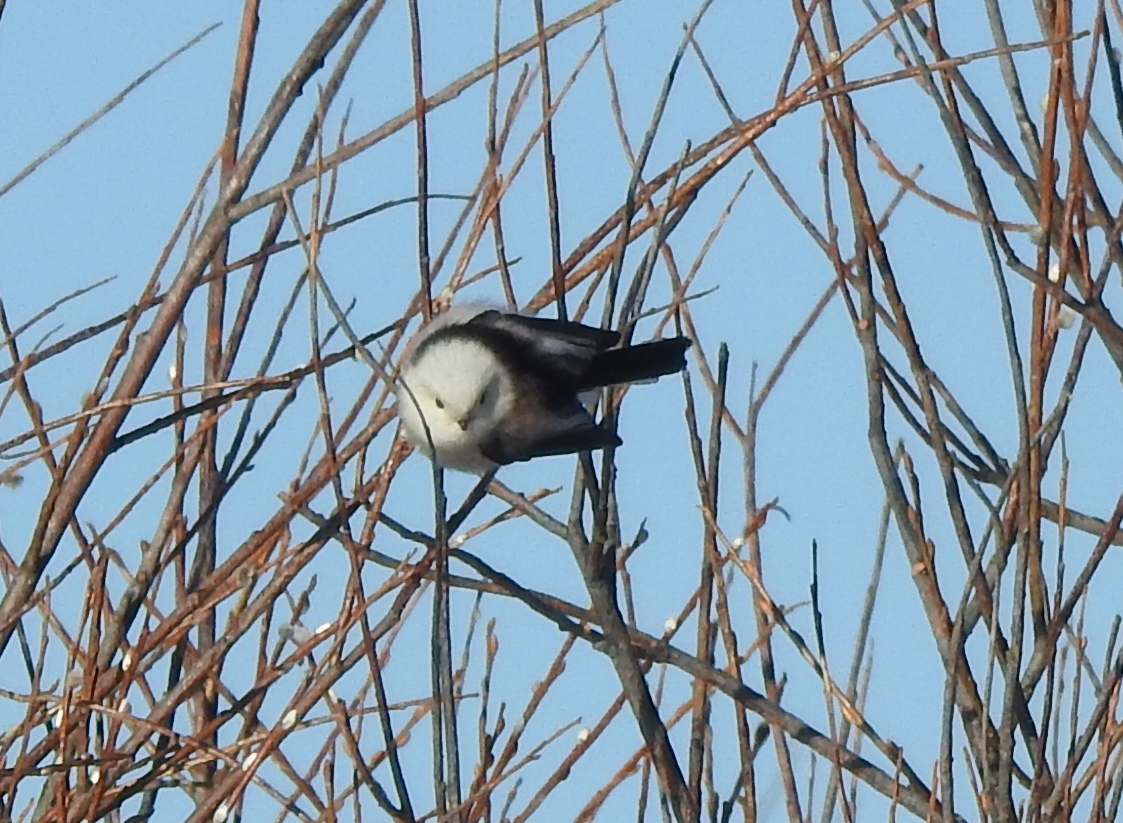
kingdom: Animalia
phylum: Chordata
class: Aves
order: Passeriformes
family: Aegithalidae
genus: Aegithalos
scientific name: Aegithalos caudatus
